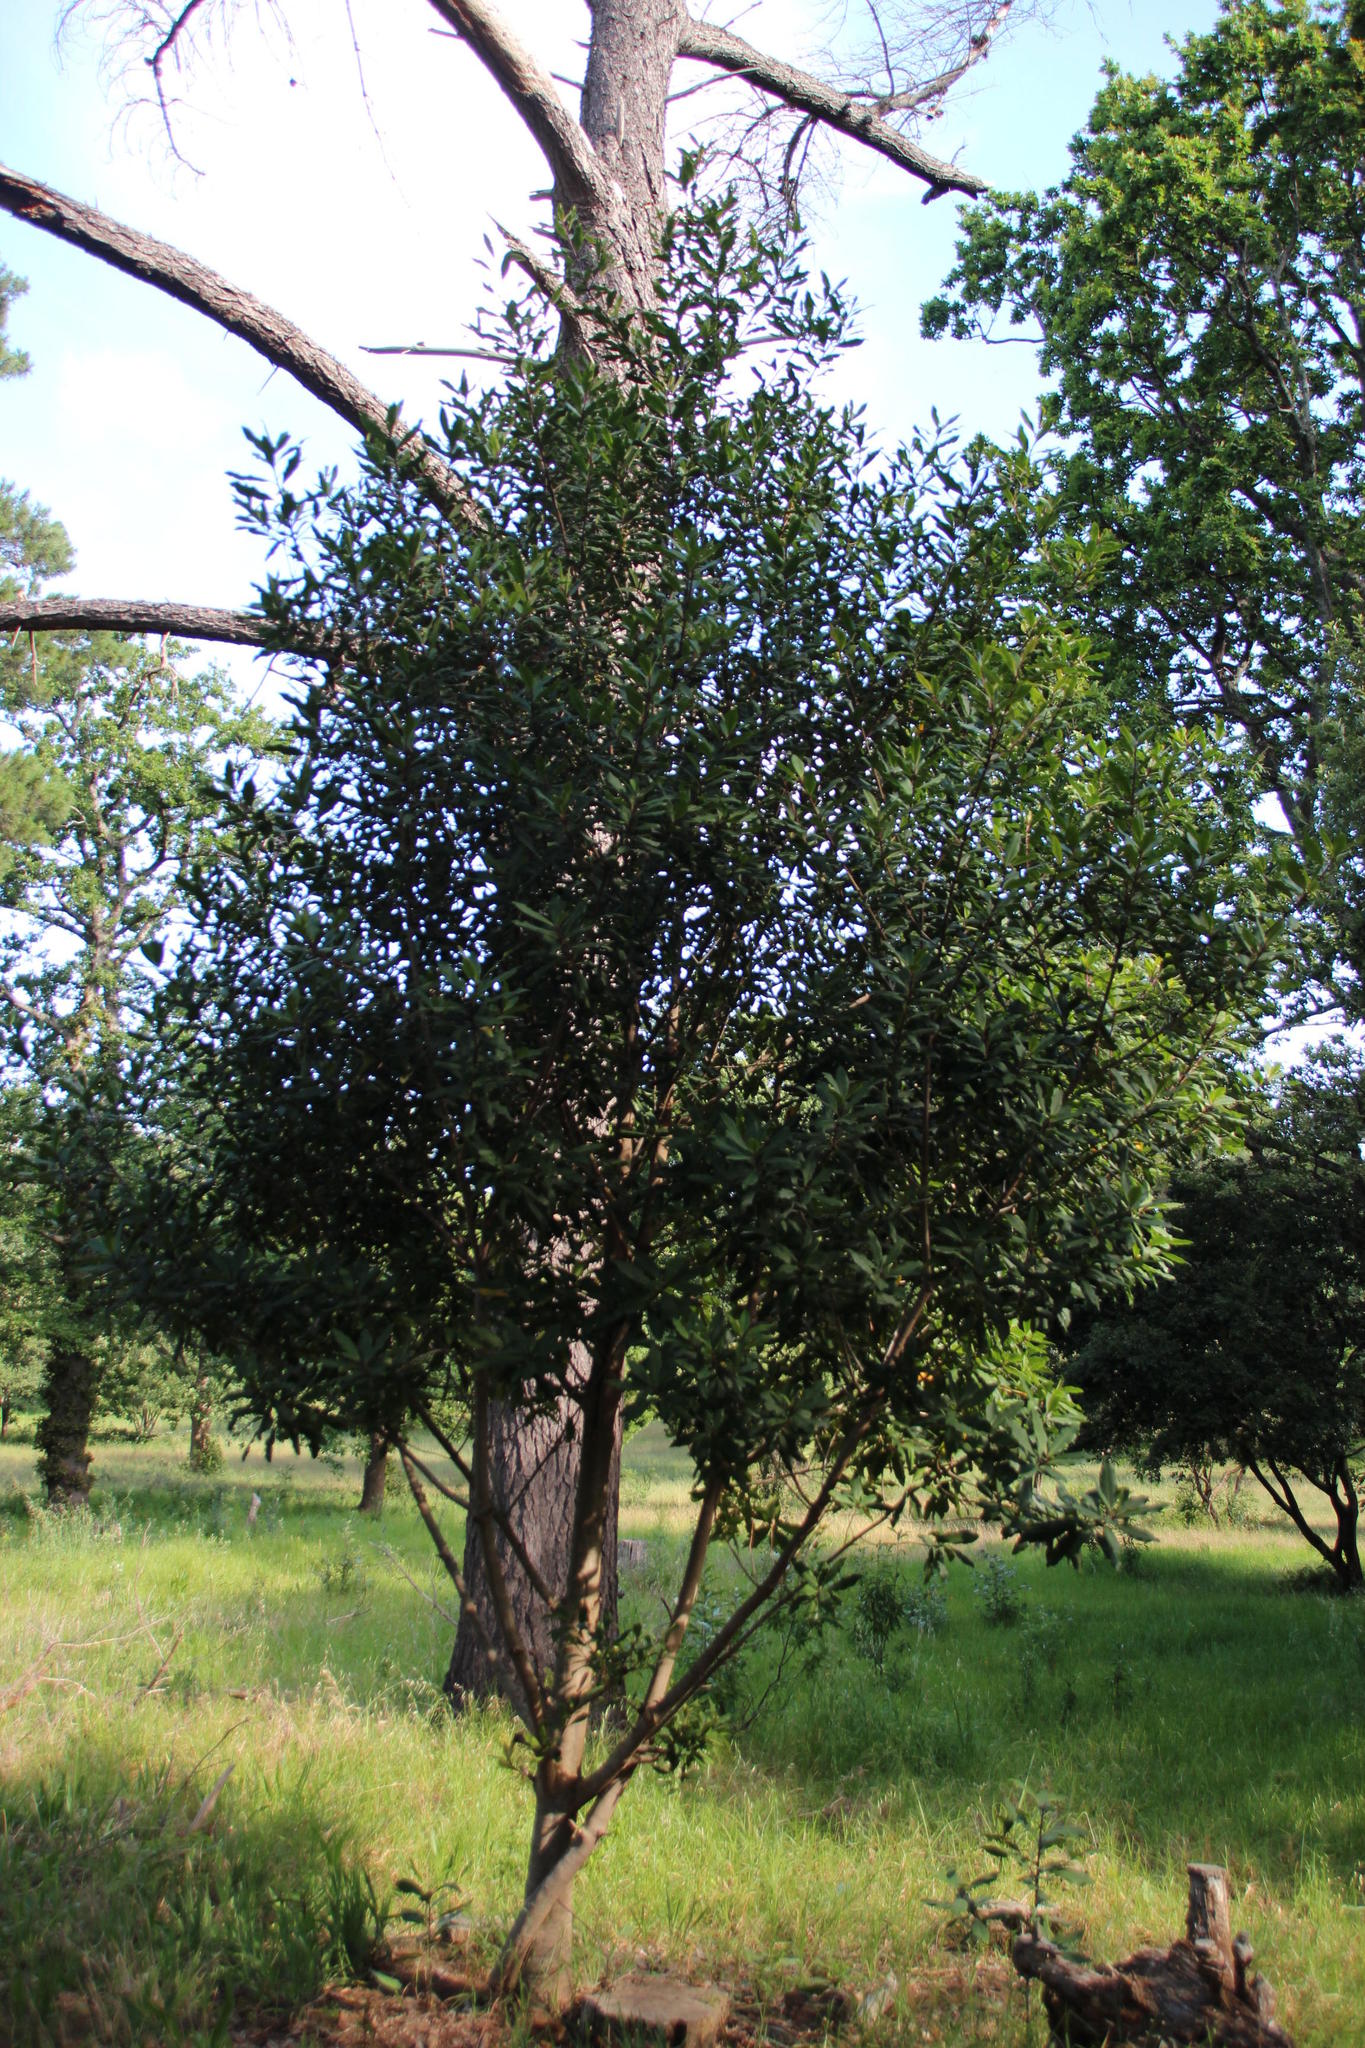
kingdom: Plantae
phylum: Tracheophyta
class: Magnoliopsida
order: Ericales
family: Primulaceae
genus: Myrsine
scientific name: Myrsine melanophloeos
